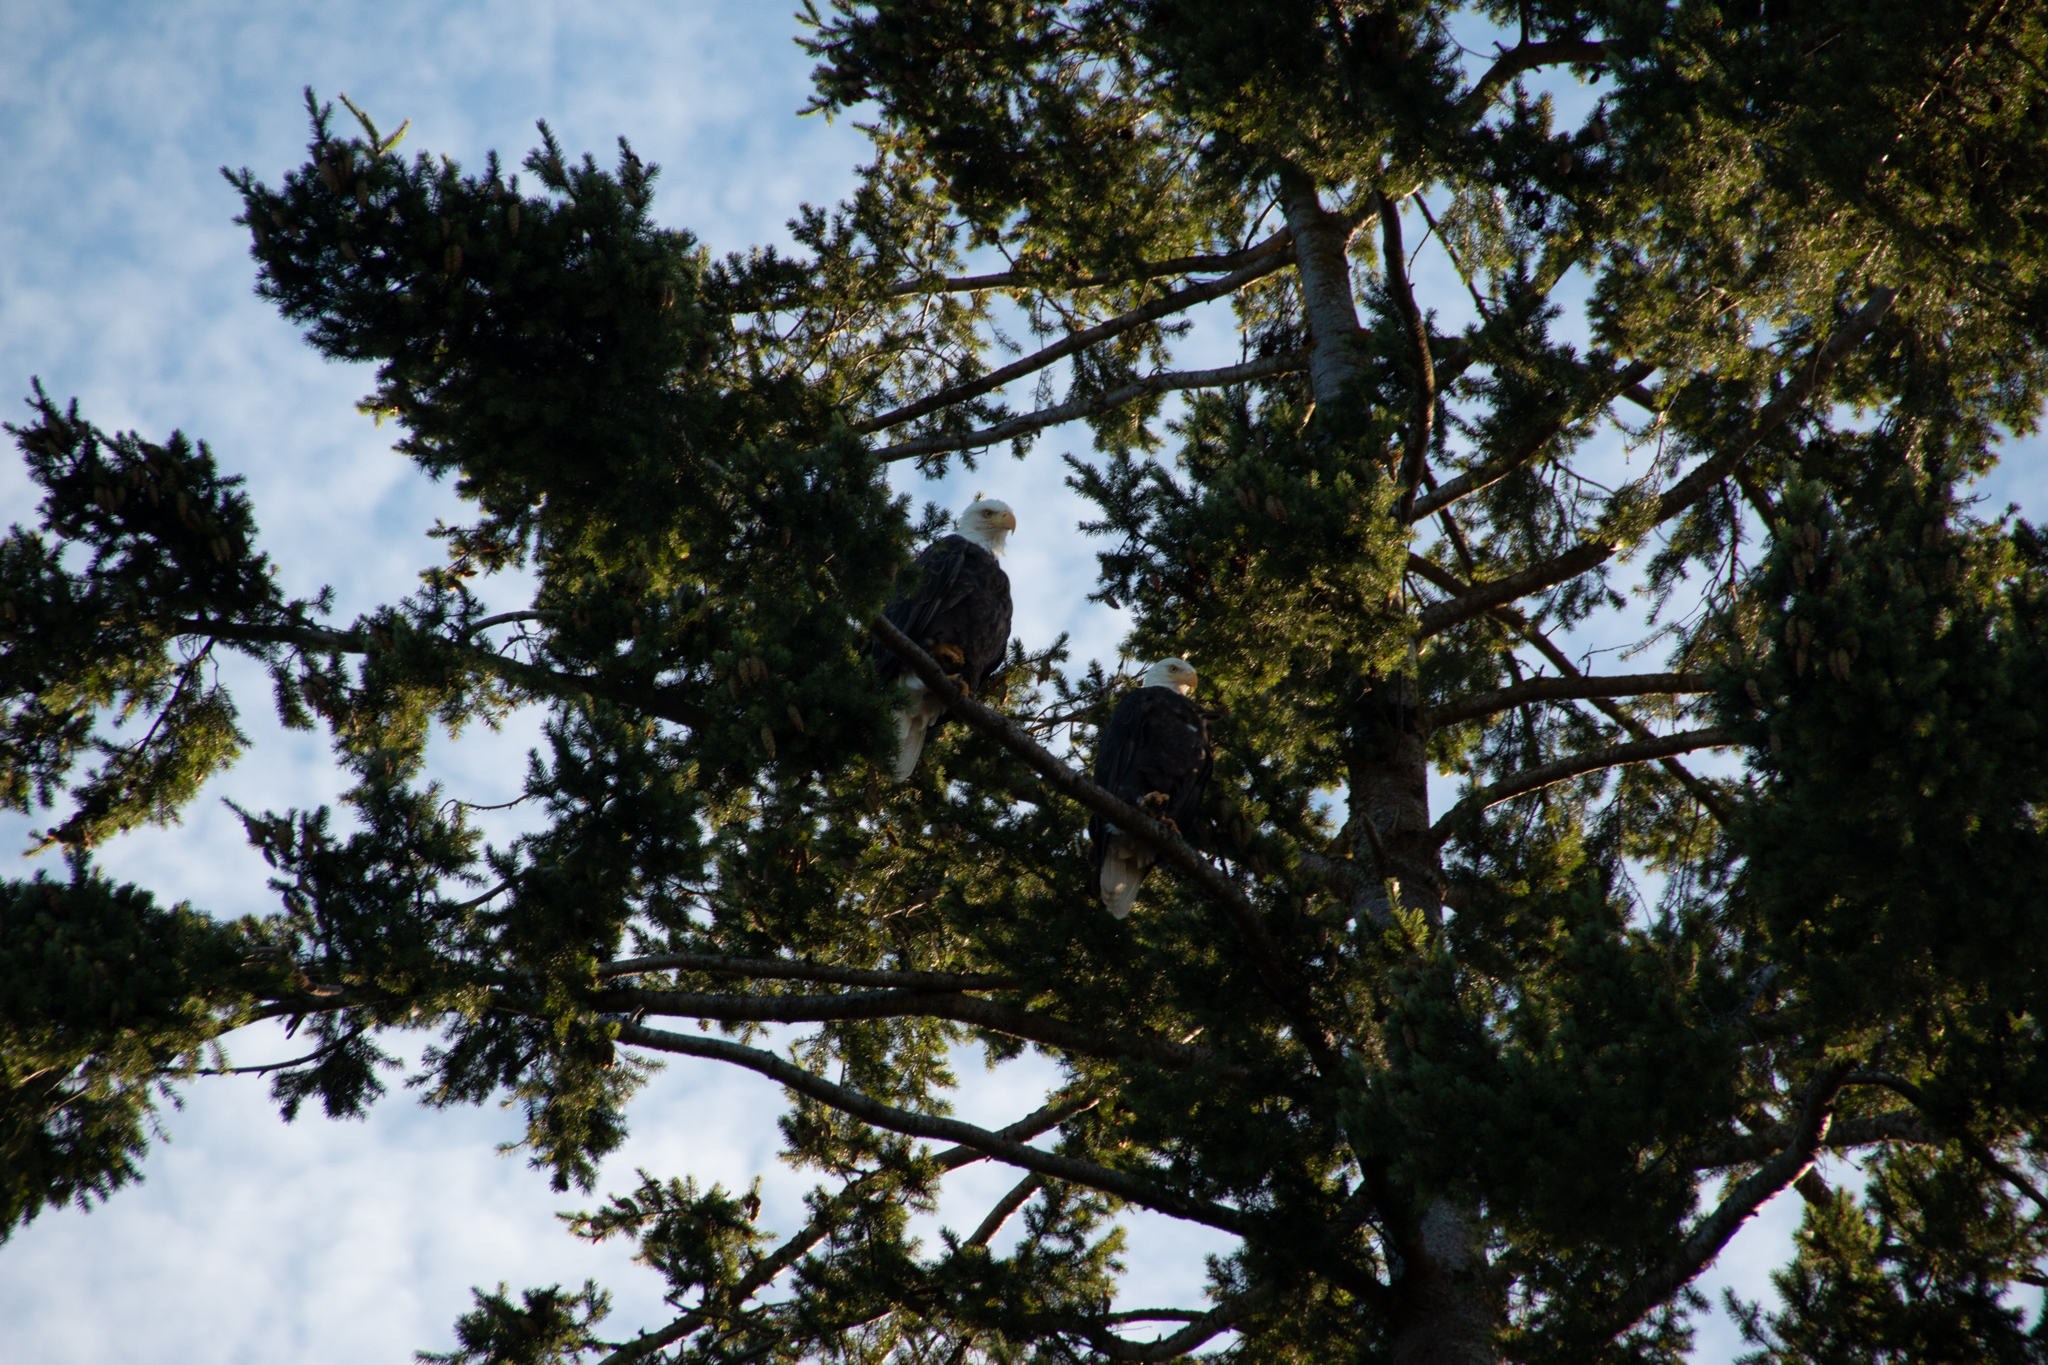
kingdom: Animalia
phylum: Chordata
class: Aves
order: Accipitriformes
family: Accipitridae
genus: Haliaeetus
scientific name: Haliaeetus leucocephalus
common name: Bald eagle
